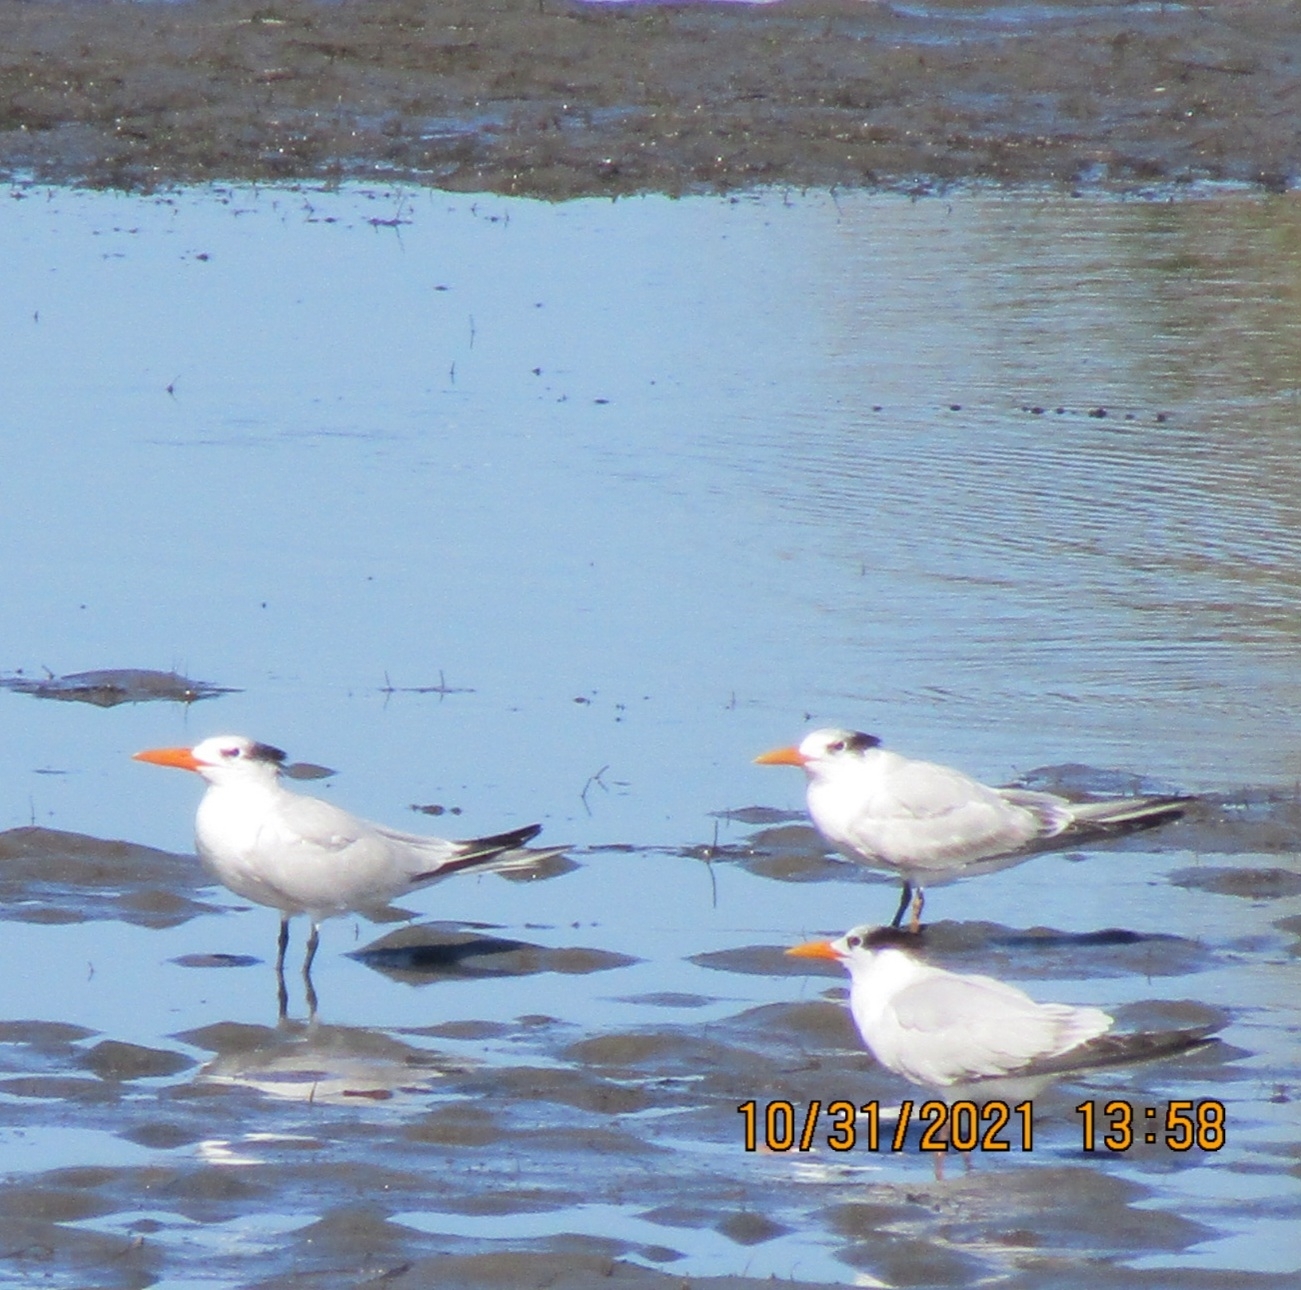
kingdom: Animalia
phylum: Chordata
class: Aves
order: Charadriiformes
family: Laridae
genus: Thalasseus
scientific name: Thalasseus maximus
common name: Royal tern
